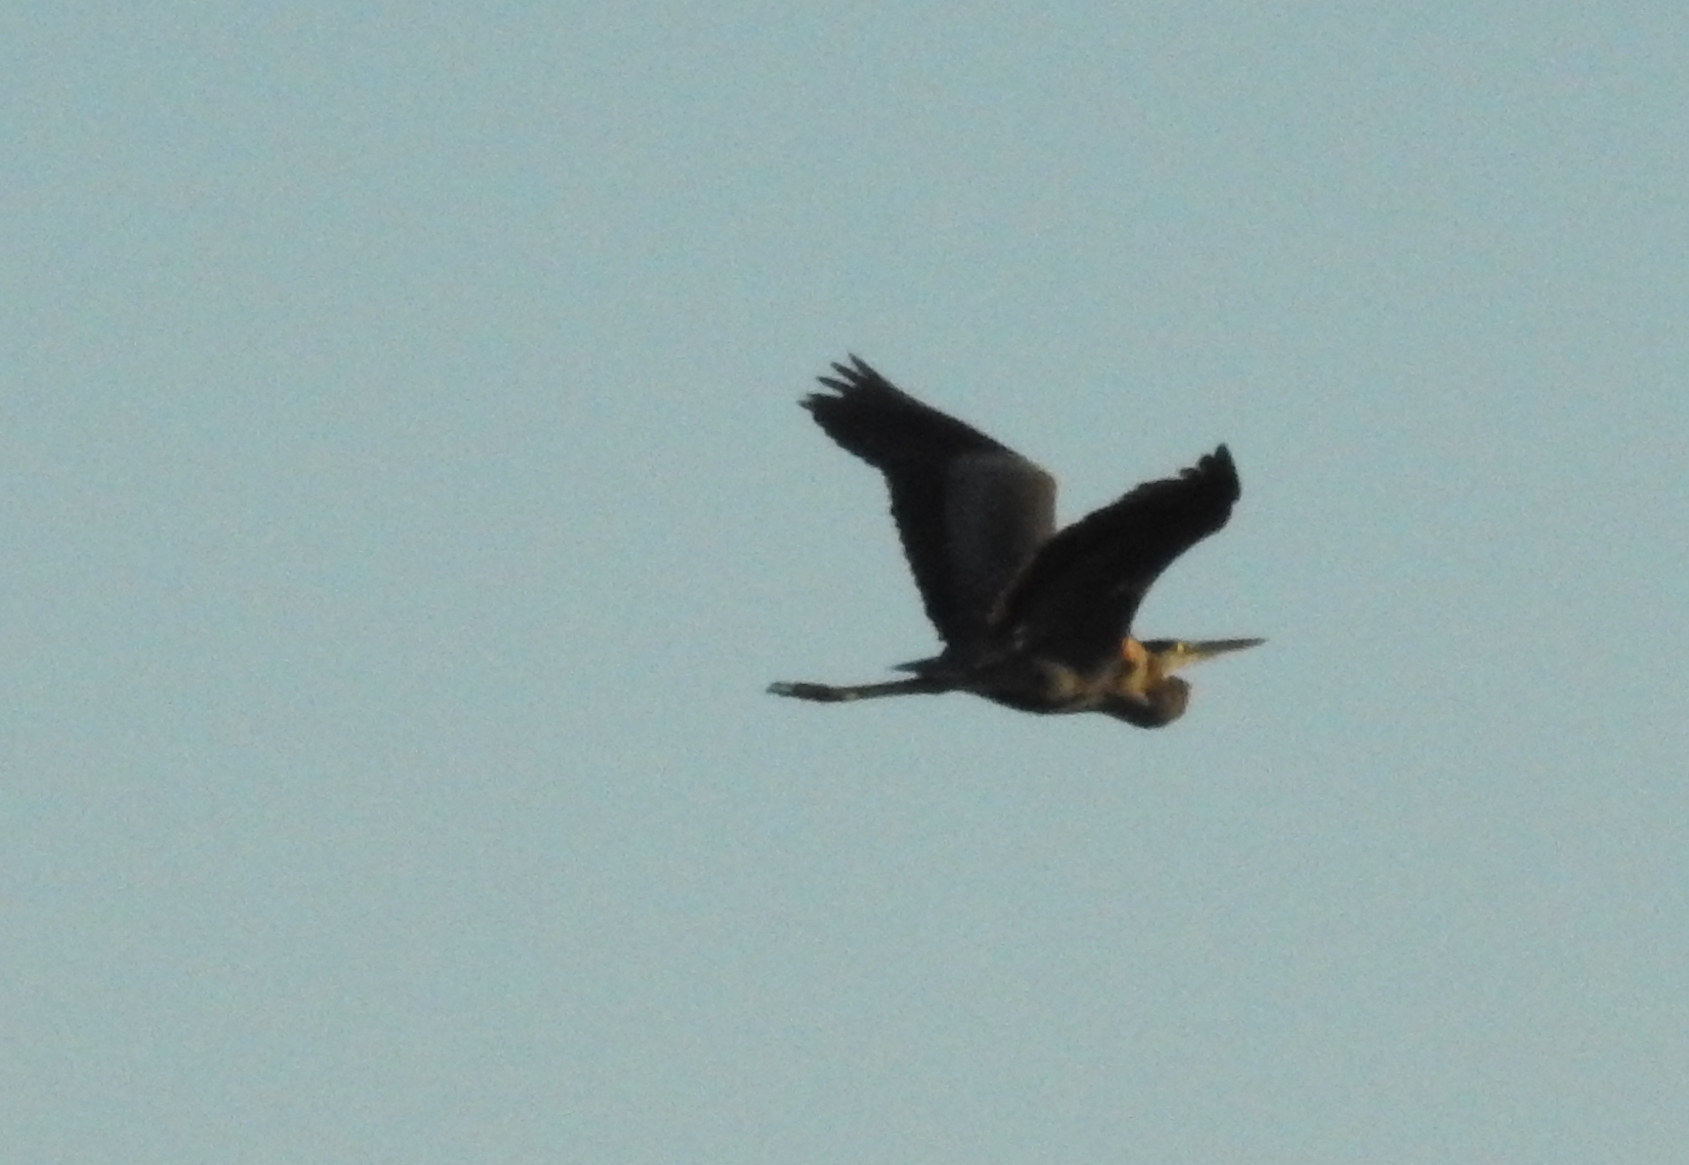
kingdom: Animalia
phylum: Chordata
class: Aves
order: Pelecaniformes
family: Ardeidae
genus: Ardea
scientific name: Ardea herodias
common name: Great blue heron
